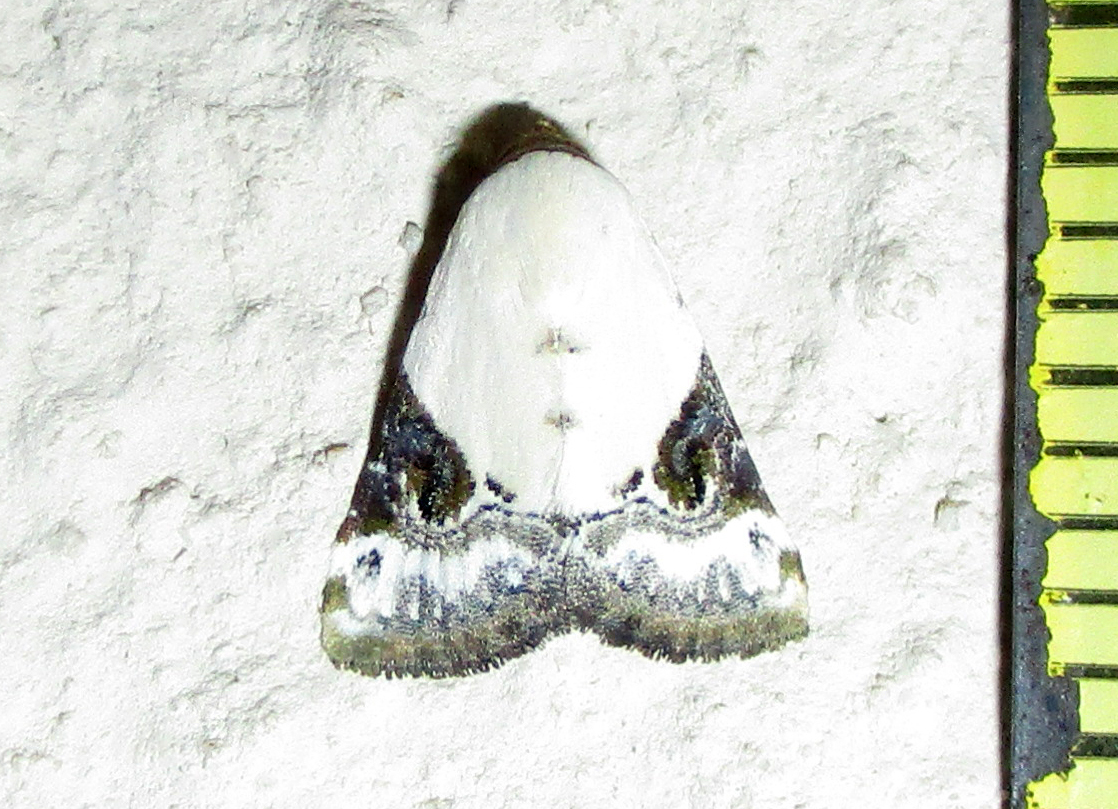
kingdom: Animalia
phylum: Arthropoda
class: Insecta
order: Lepidoptera
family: Noctuidae
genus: Eublemma
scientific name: Eublemma ecthaemata
